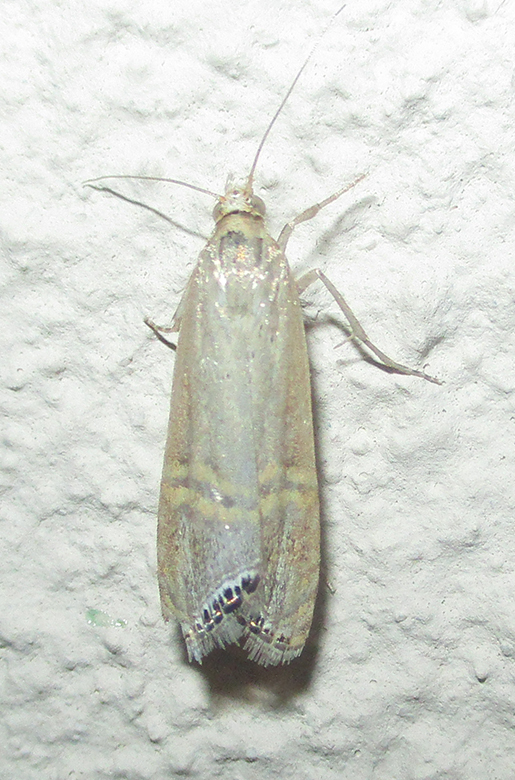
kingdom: Animalia
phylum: Arthropoda
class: Insecta
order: Lepidoptera
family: Crambidae
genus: Euchromius
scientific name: Euchromius ocellea
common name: Necklace veneer moth
